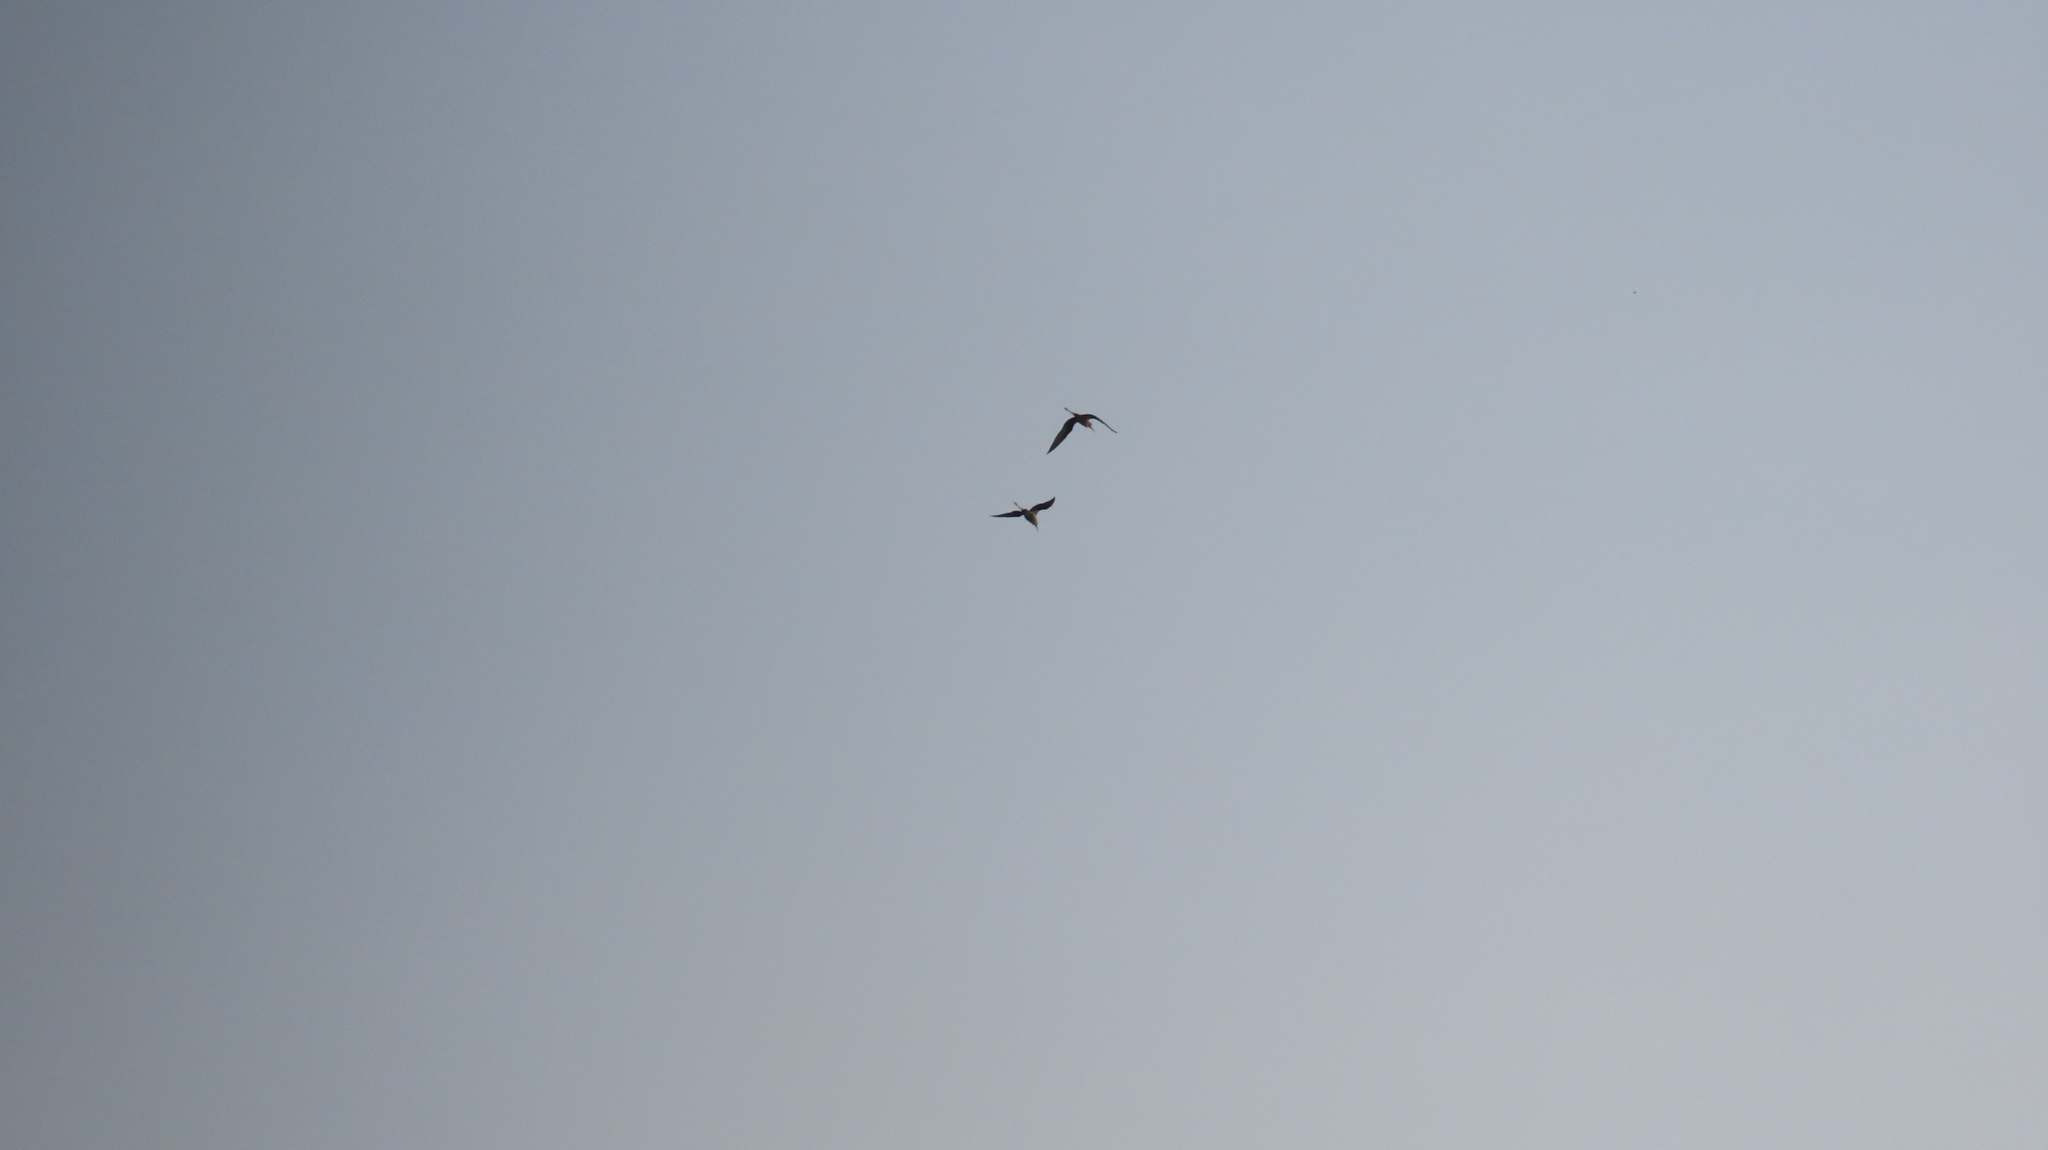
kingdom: Animalia
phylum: Chordata
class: Aves
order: Charadriiformes
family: Recurvirostridae
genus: Himantopus
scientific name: Himantopus himantopus
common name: Black-winged stilt
